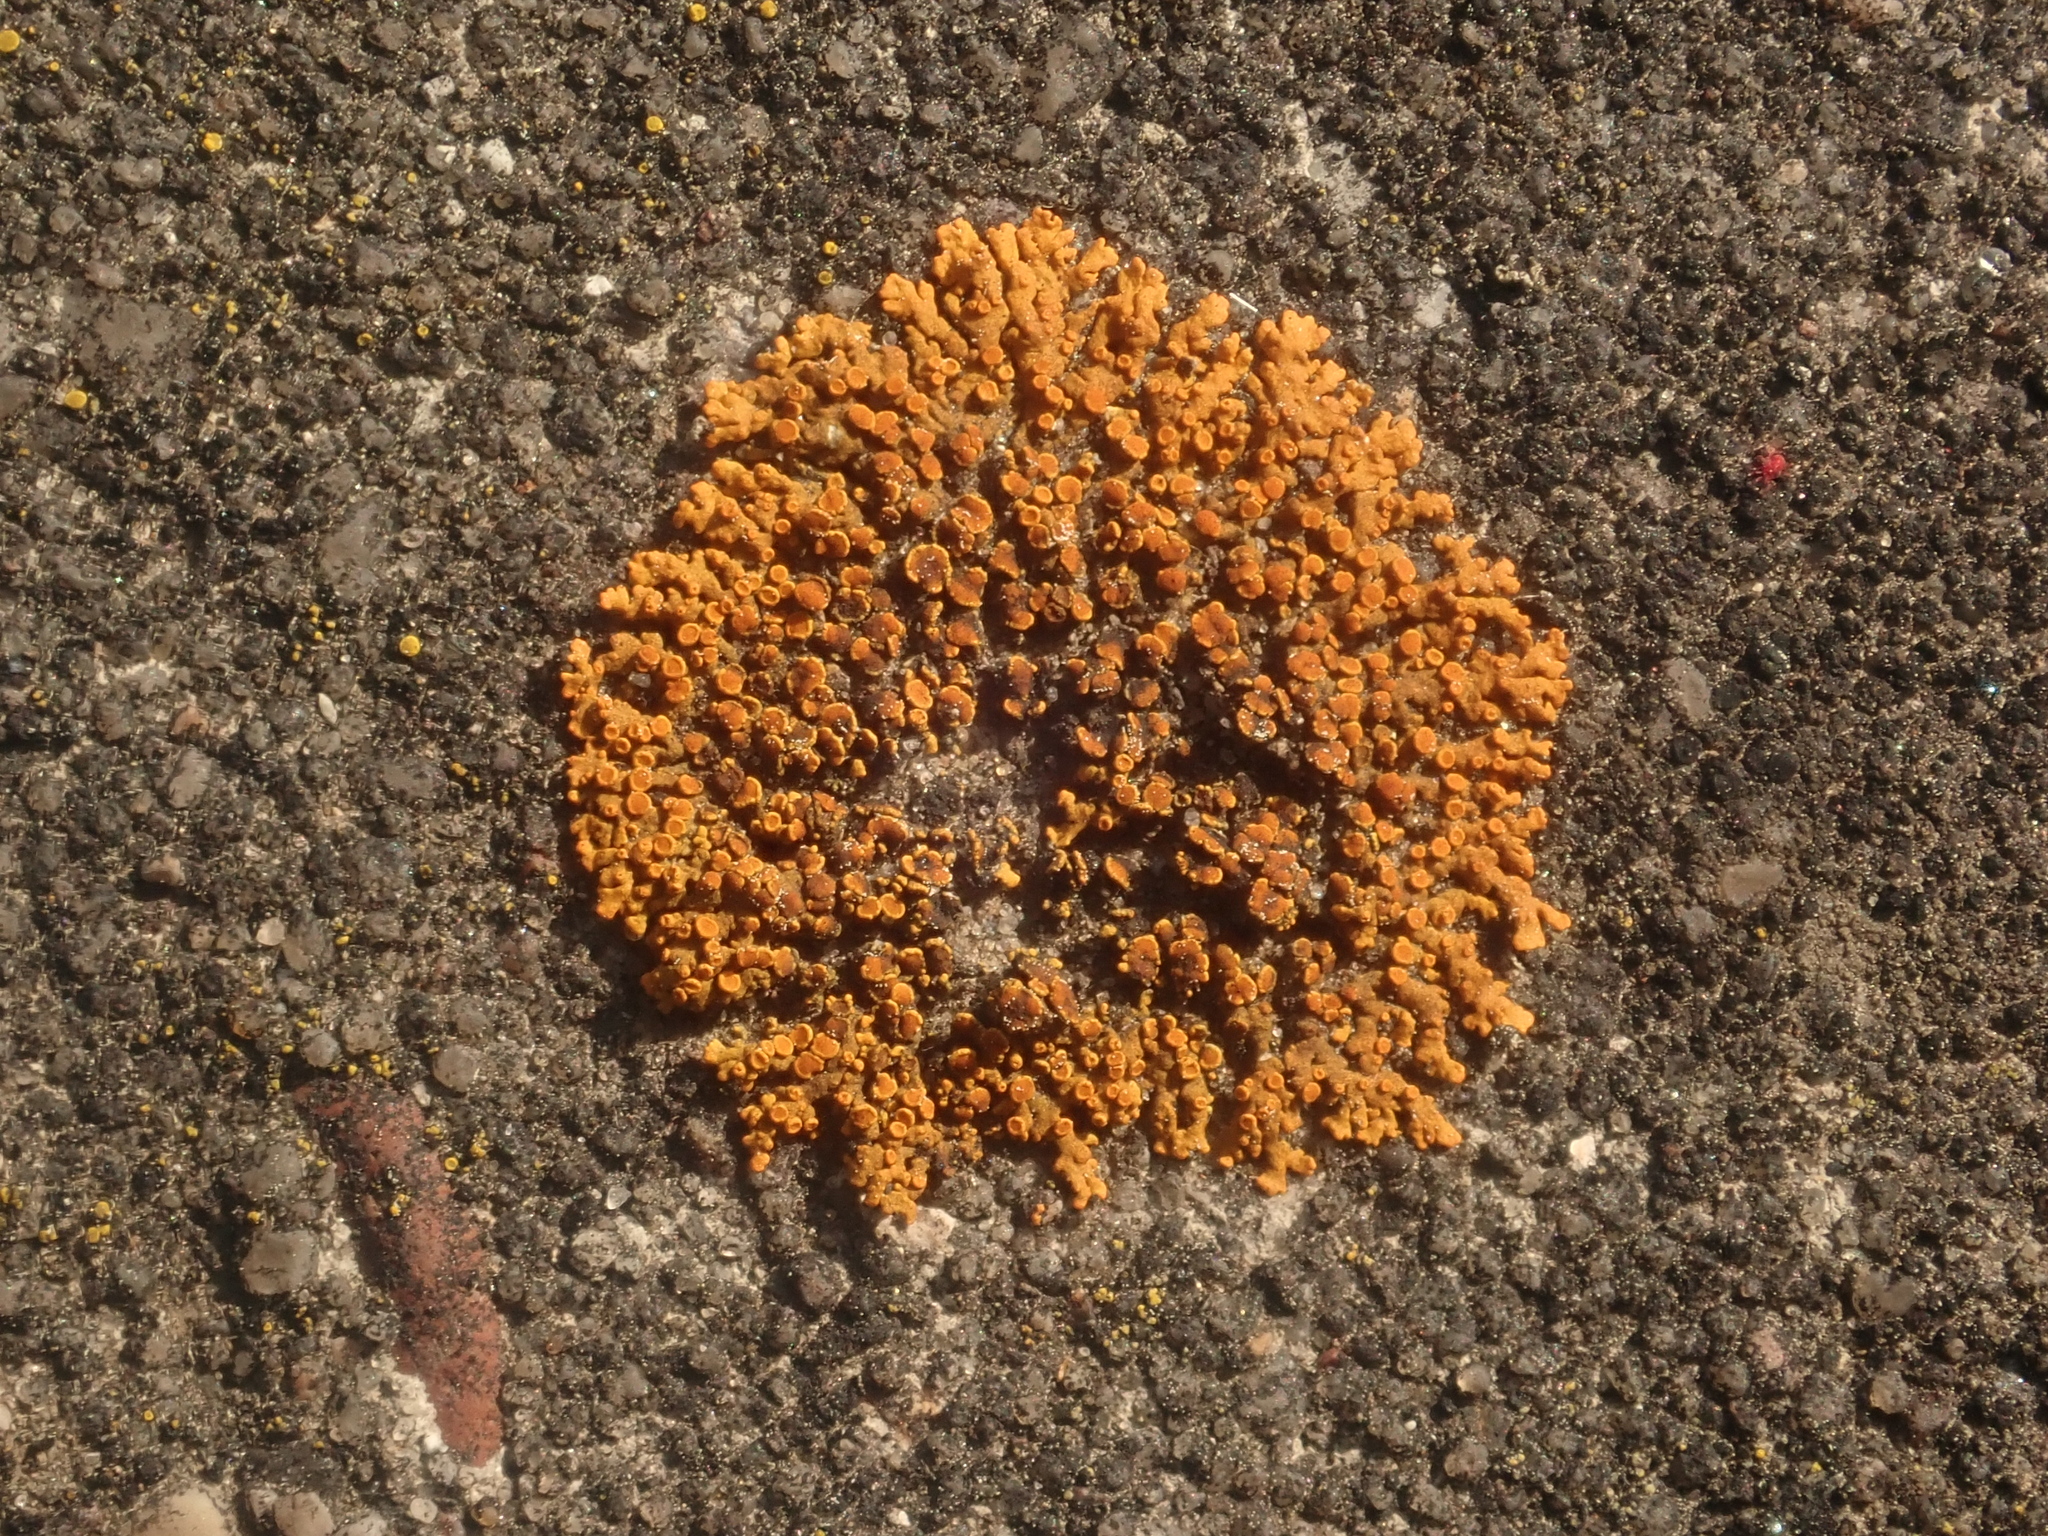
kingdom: Fungi
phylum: Ascomycota
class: Lecanoromycetes
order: Teloschistales
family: Teloschistaceae
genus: Xanthoria
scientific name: Xanthoria elegans
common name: Elegant sunburst lichen
